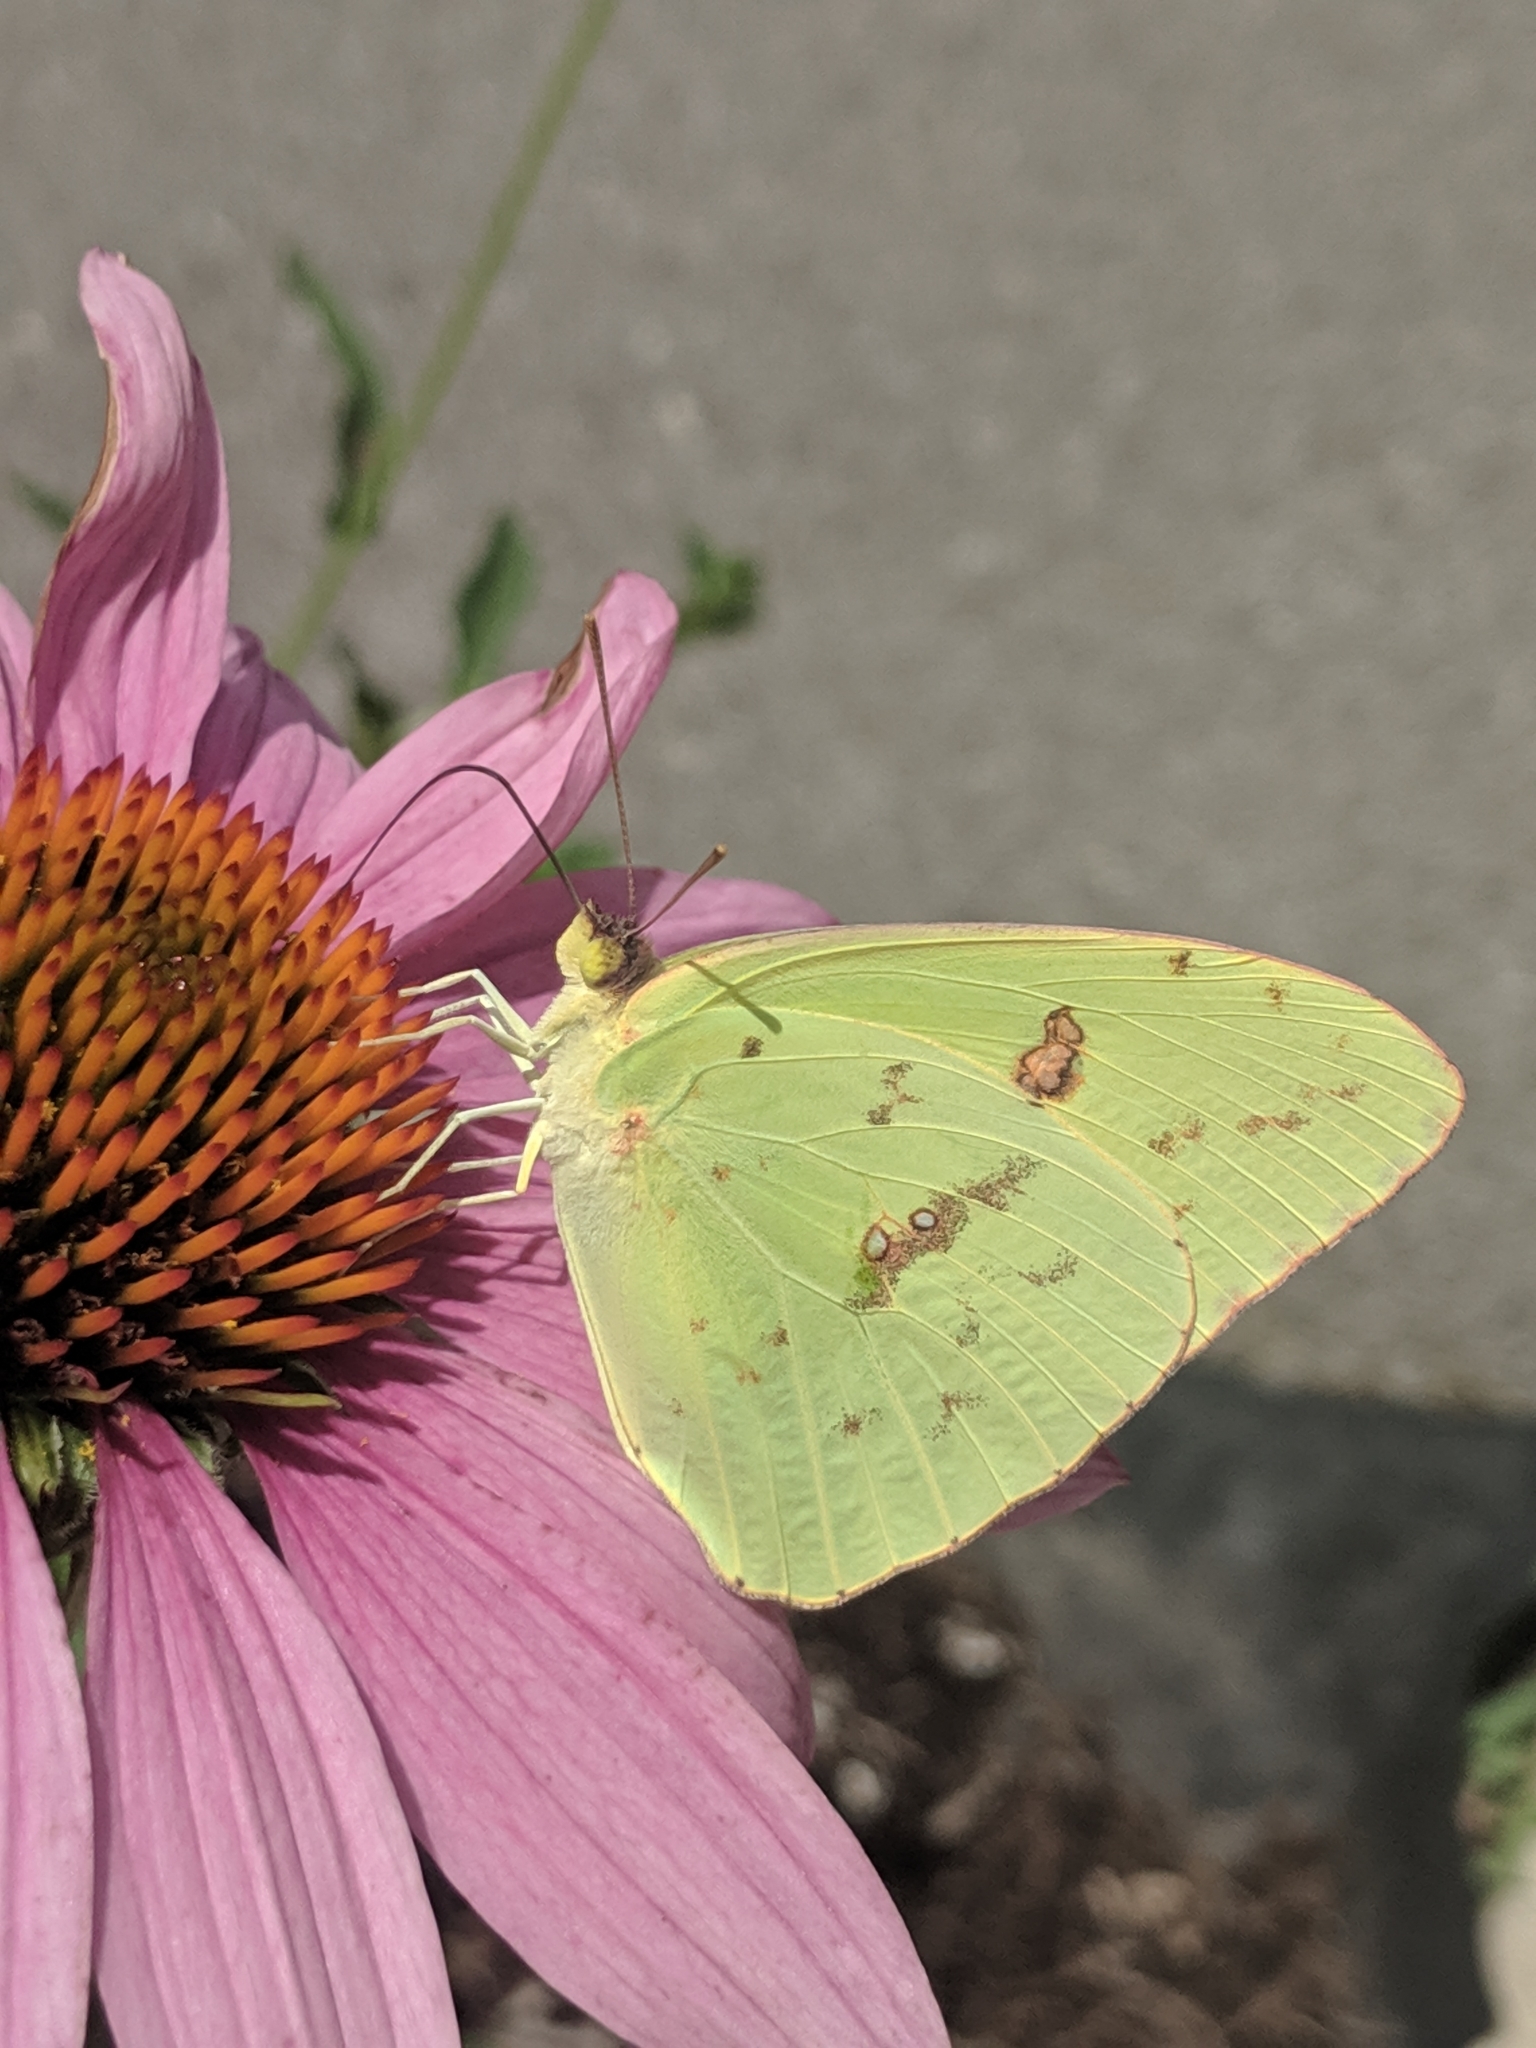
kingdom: Animalia
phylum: Arthropoda
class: Insecta
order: Lepidoptera
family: Pieridae
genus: Phoebis
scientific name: Phoebis sennae
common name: Cloudless sulphur
